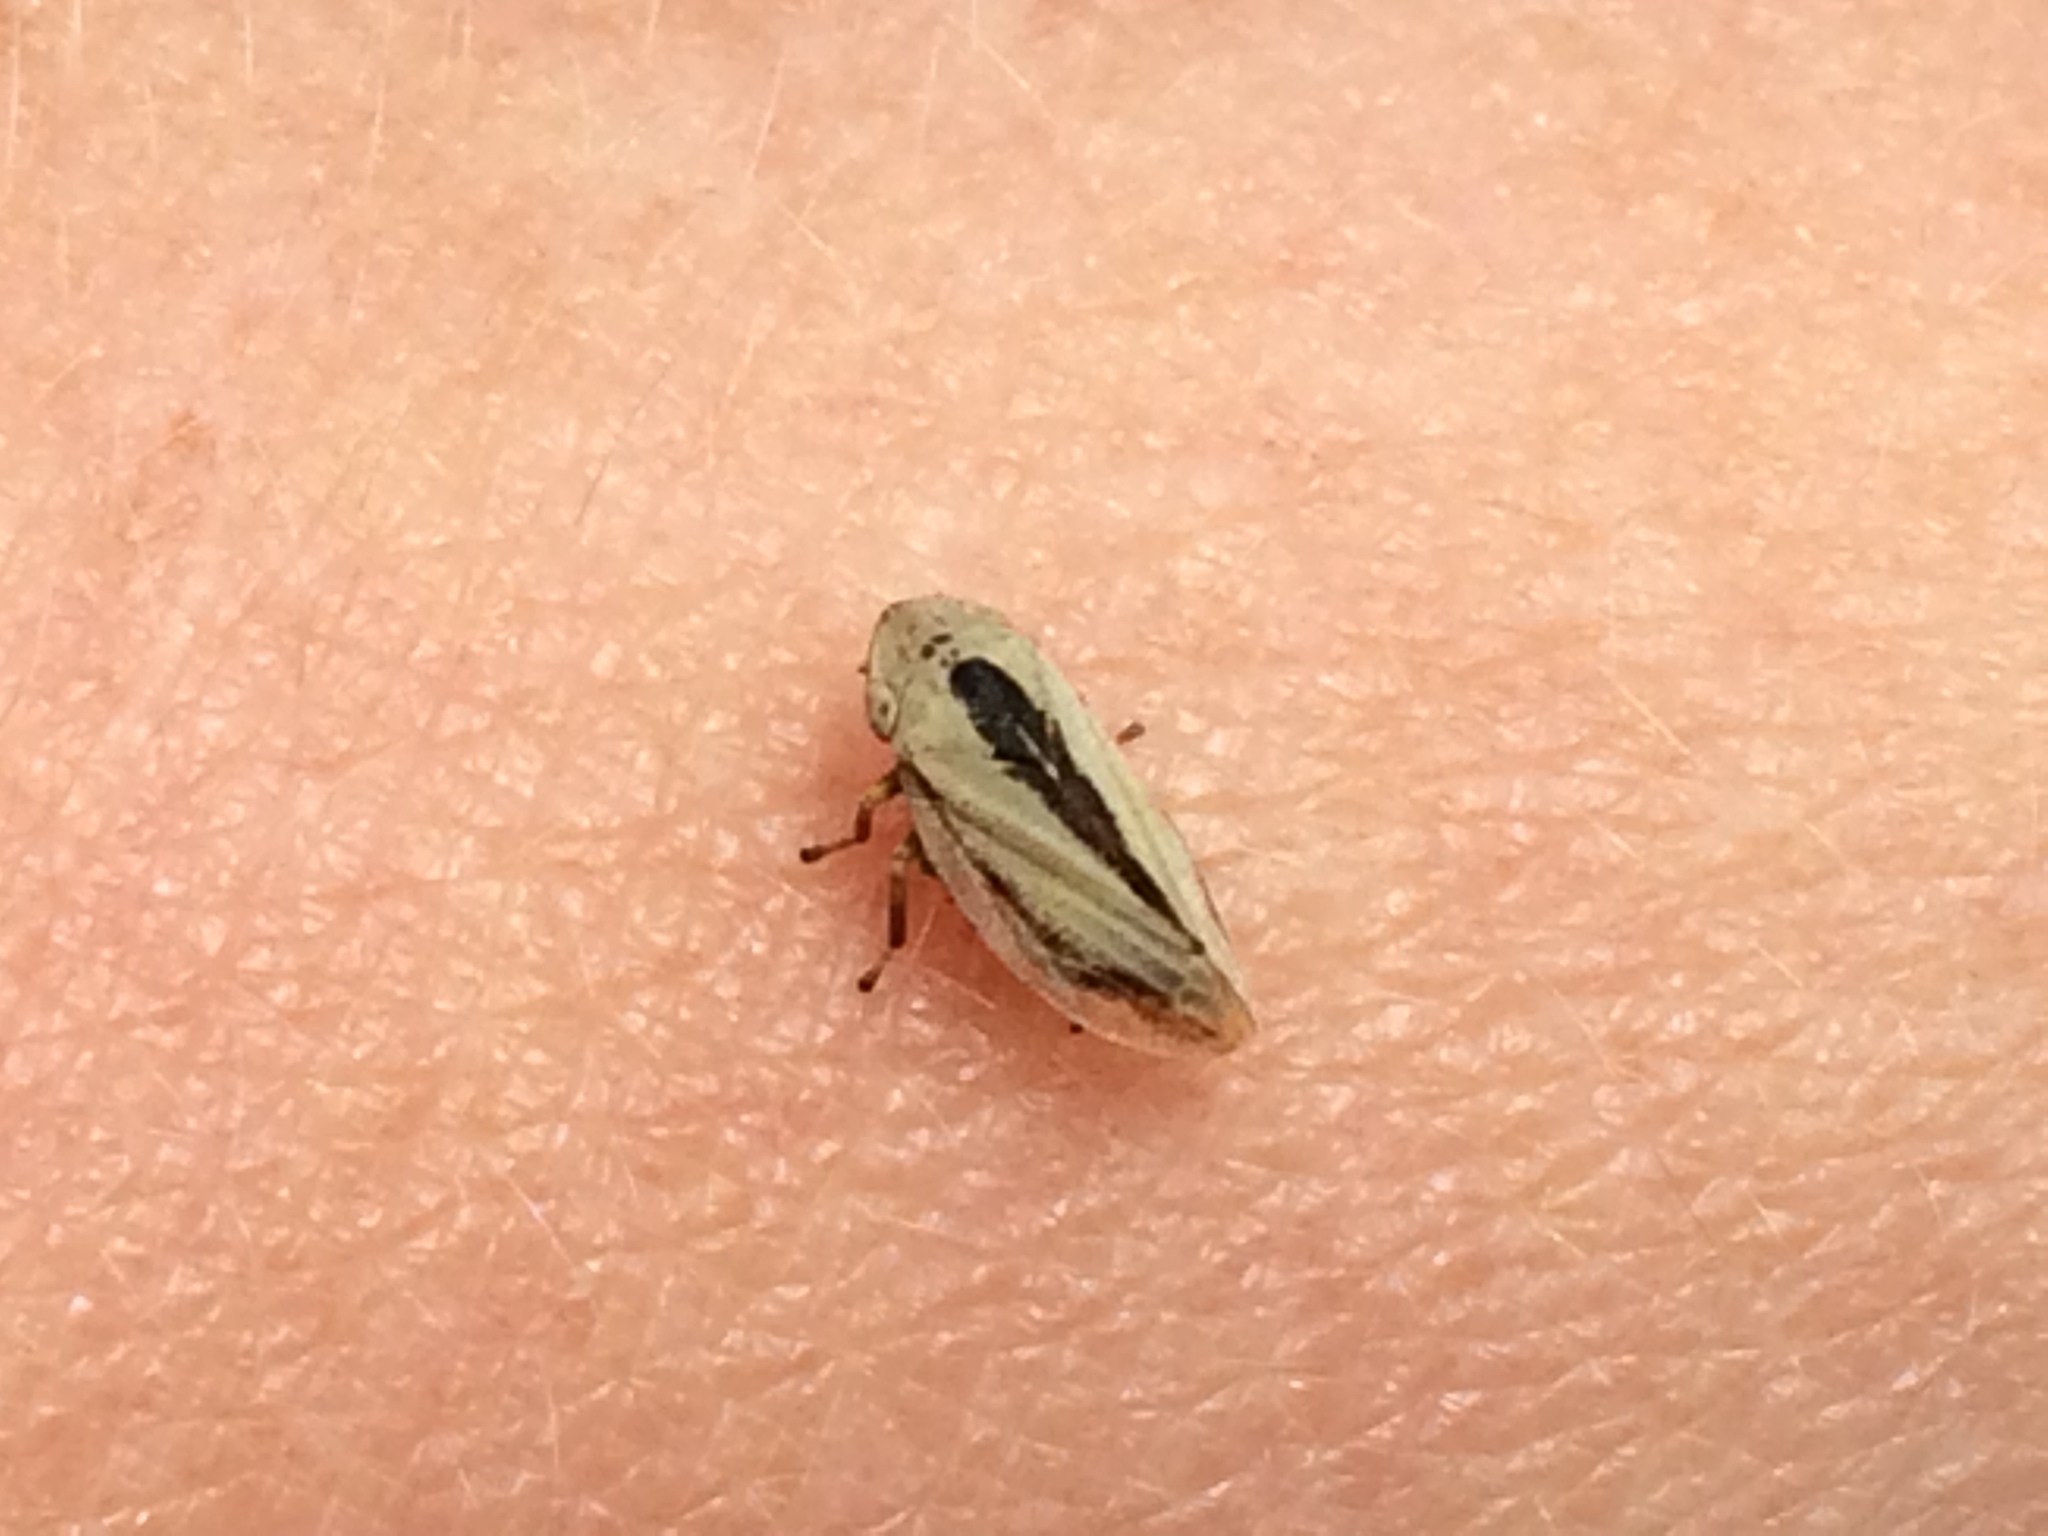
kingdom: Animalia
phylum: Arthropoda
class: Insecta
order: Hemiptera
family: Aphrophoridae
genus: Philaenus
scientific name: Philaenus spumarius
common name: Meadow spittlebug
